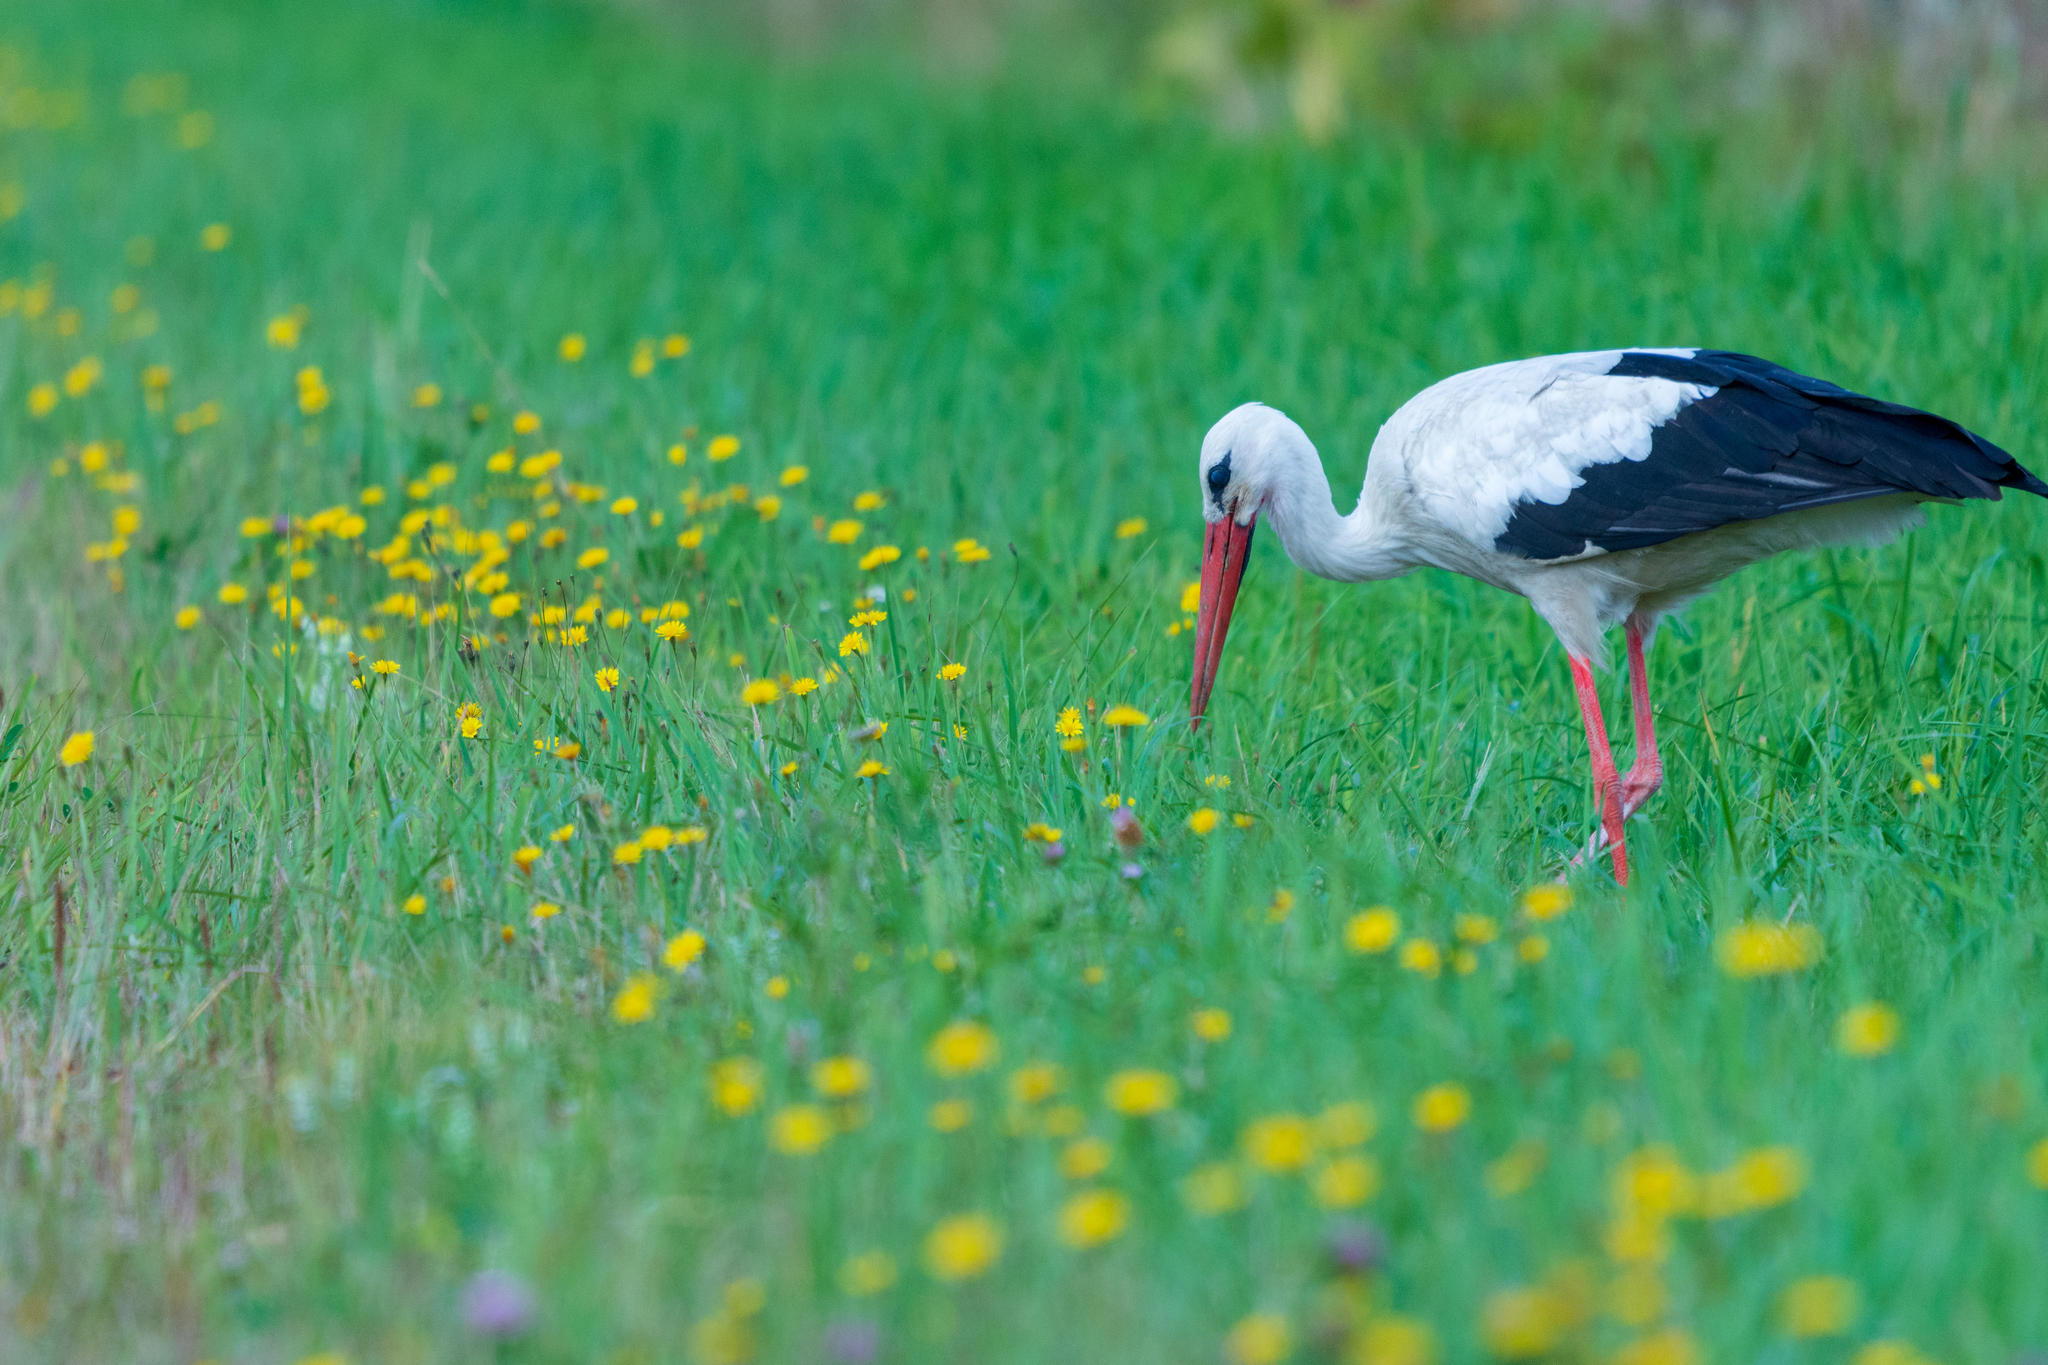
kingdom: Animalia
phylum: Chordata
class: Aves
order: Ciconiiformes
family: Ciconiidae
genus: Ciconia
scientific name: Ciconia ciconia
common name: White stork
